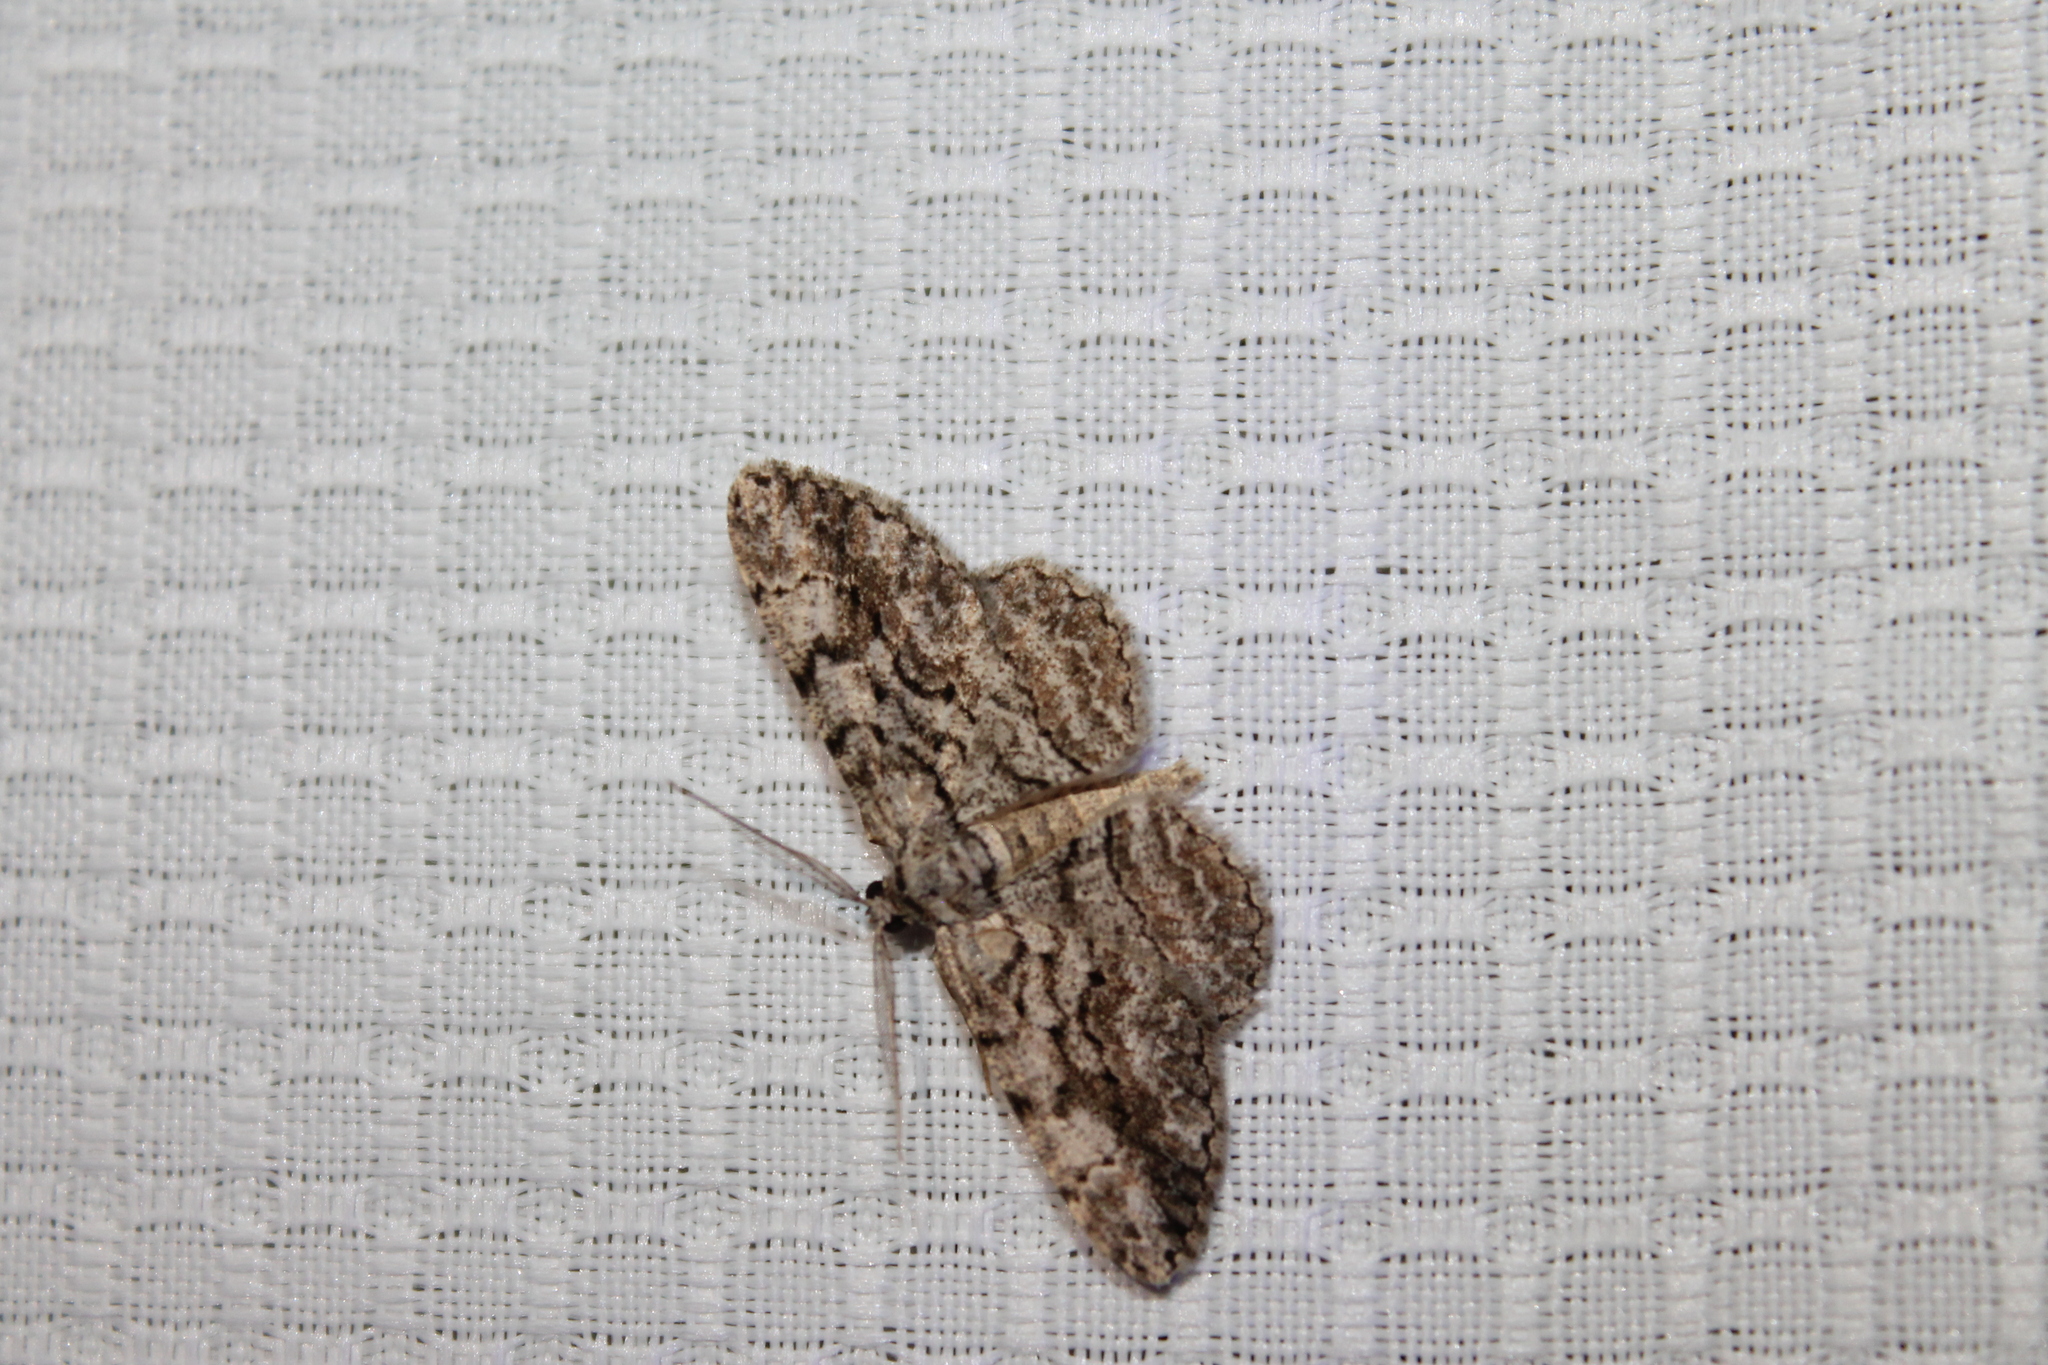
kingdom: Animalia
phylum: Arthropoda
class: Insecta
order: Lepidoptera
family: Geometridae
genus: Anavitrinella
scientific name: Anavitrinella pampinaria
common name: Common gray
